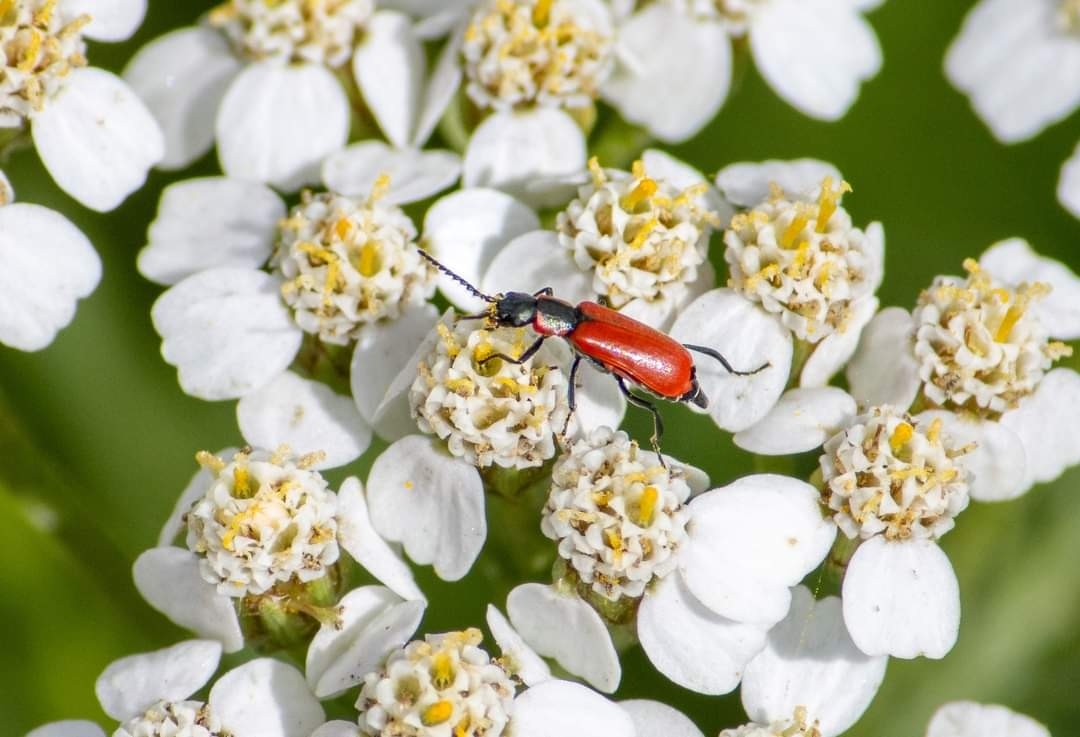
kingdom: Animalia
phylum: Arthropoda
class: Insecta
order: Coleoptera
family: Melyridae
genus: Anthocomus
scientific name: Anthocomus rufus
